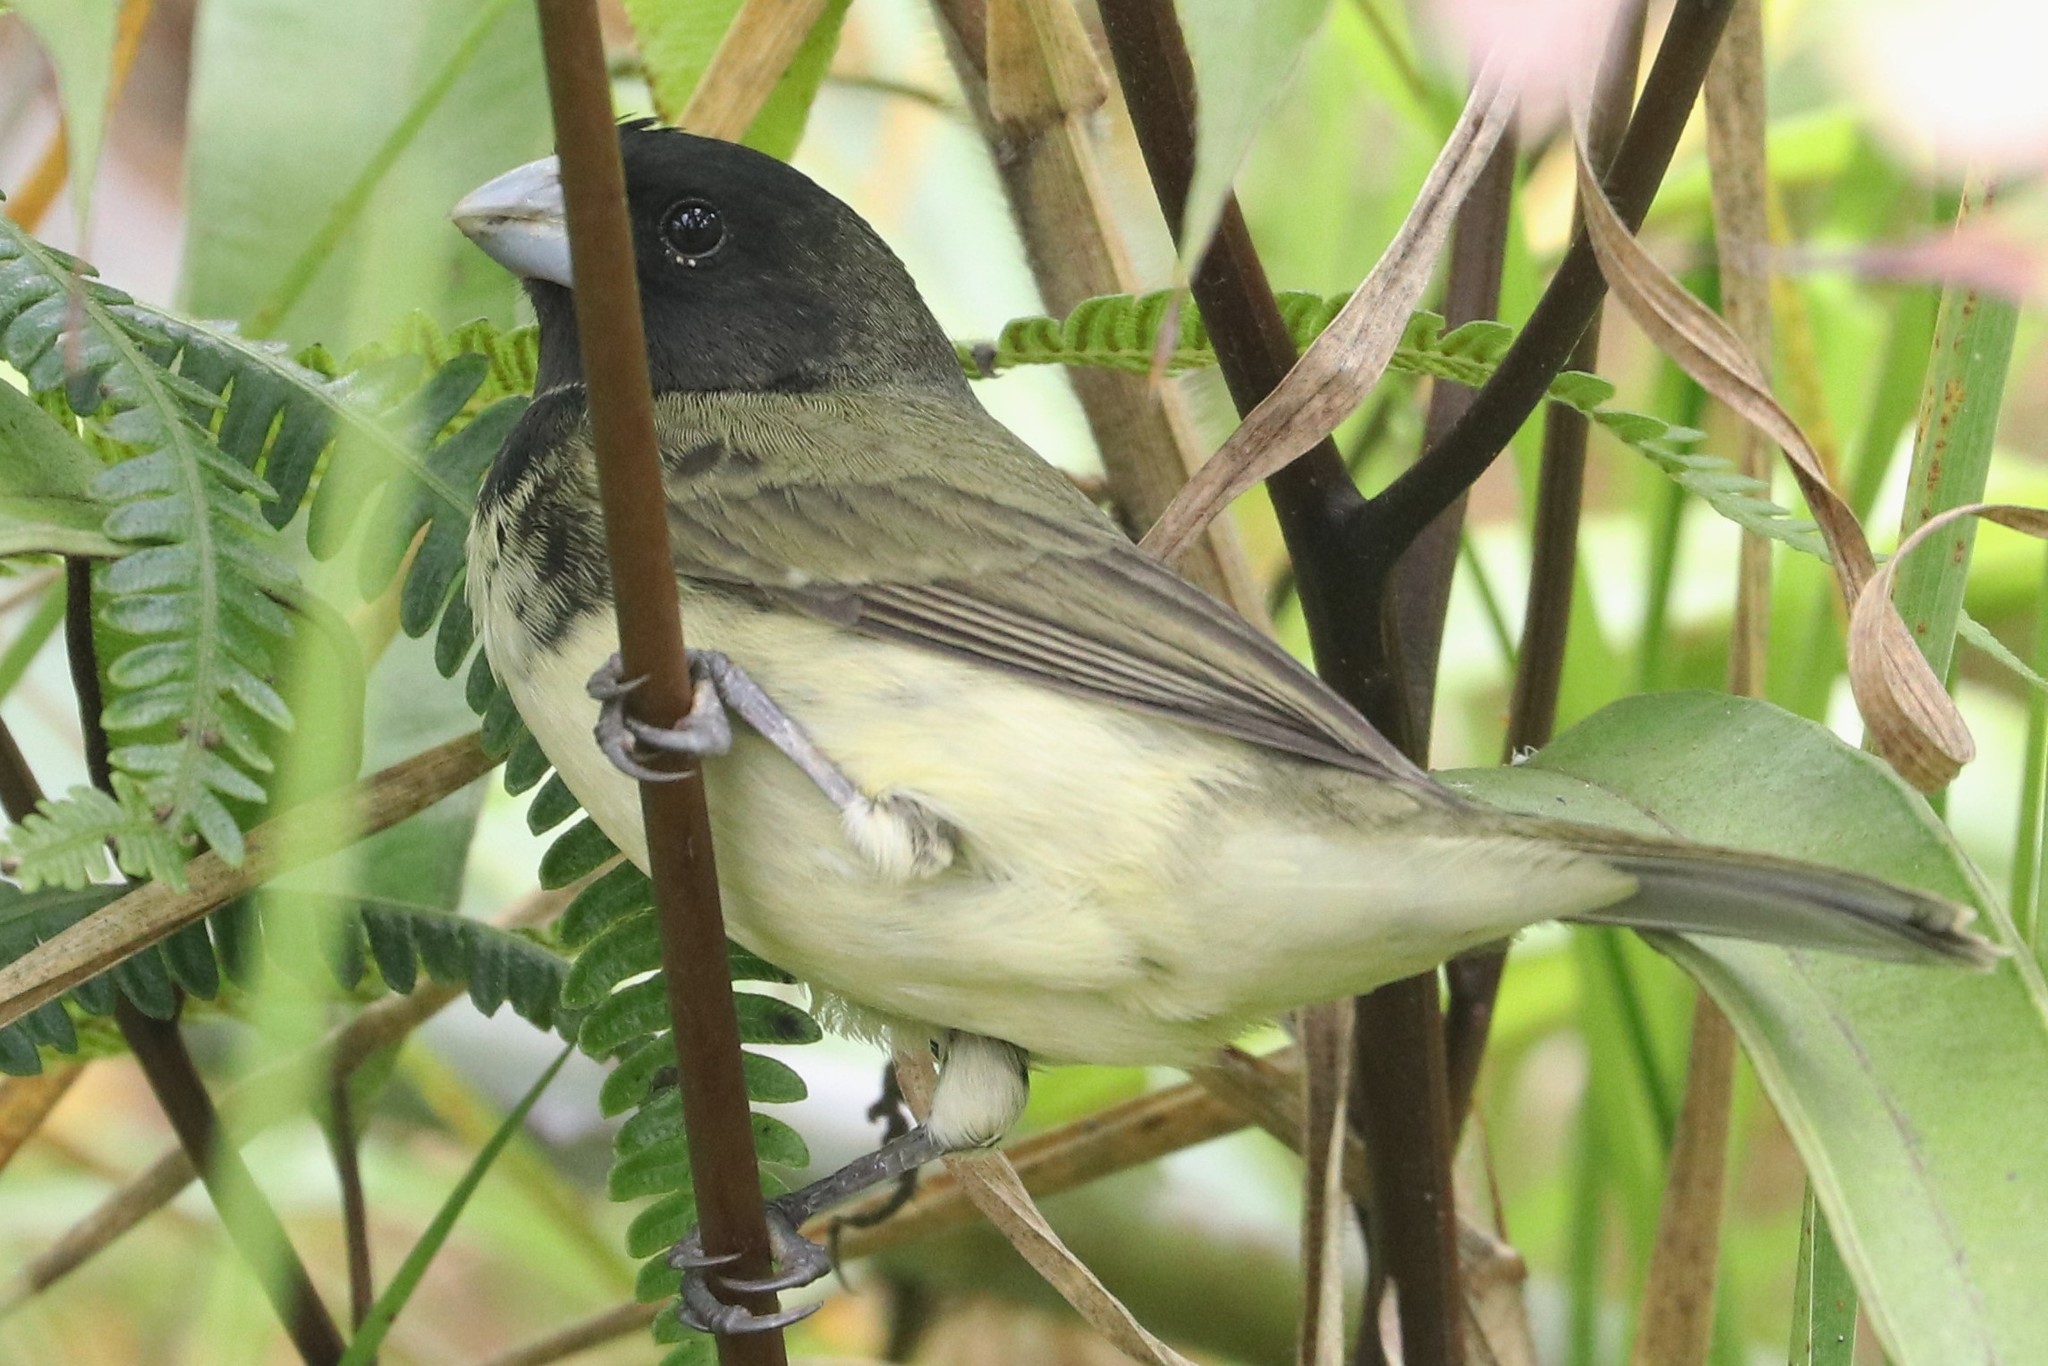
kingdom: Animalia
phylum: Chordata
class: Aves
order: Passeriformes
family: Thraupidae
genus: Sporophila
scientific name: Sporophila nigricollis
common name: Yellow-bellied seedeater
